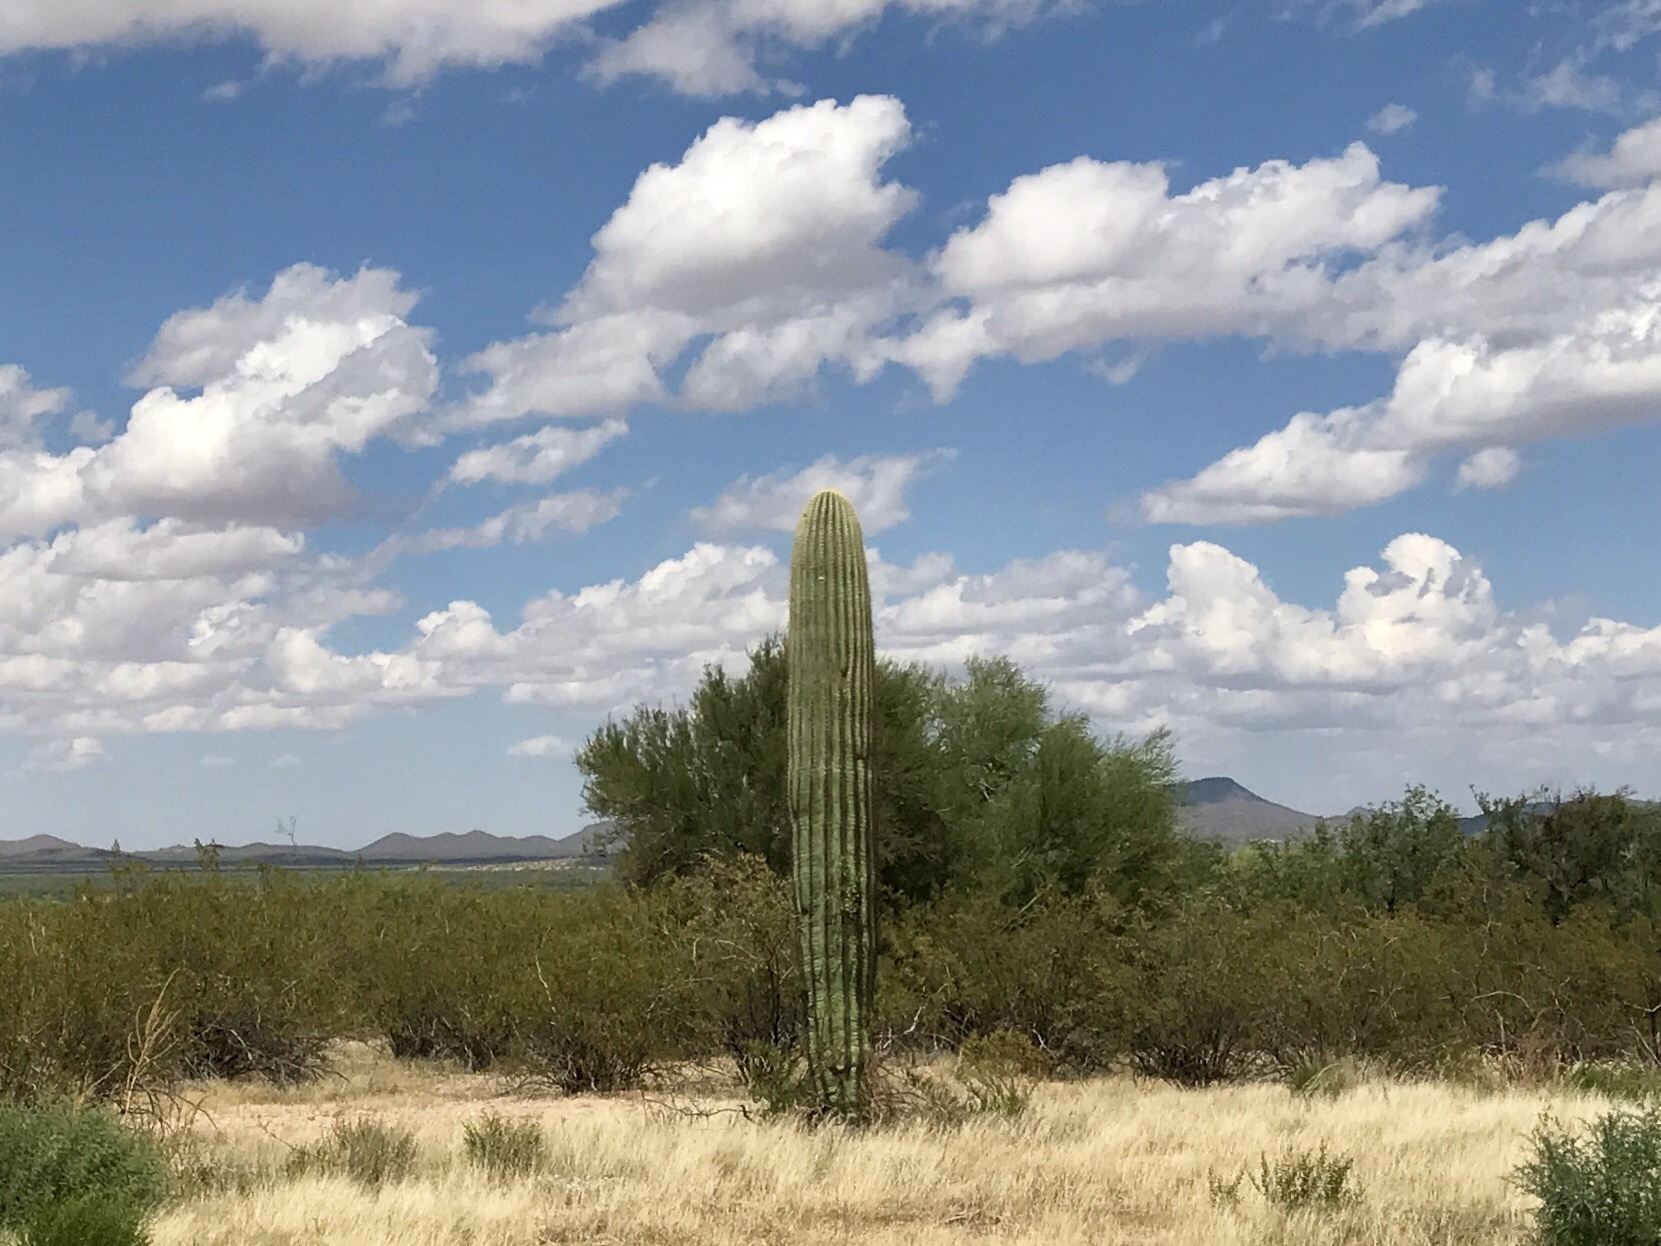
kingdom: Plantae
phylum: Tracheophyta
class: Magnoliopsida
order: Caryophyllales
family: Cactaceae
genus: Carnegiea
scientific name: Carnegiea gigantea
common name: Saguaro
